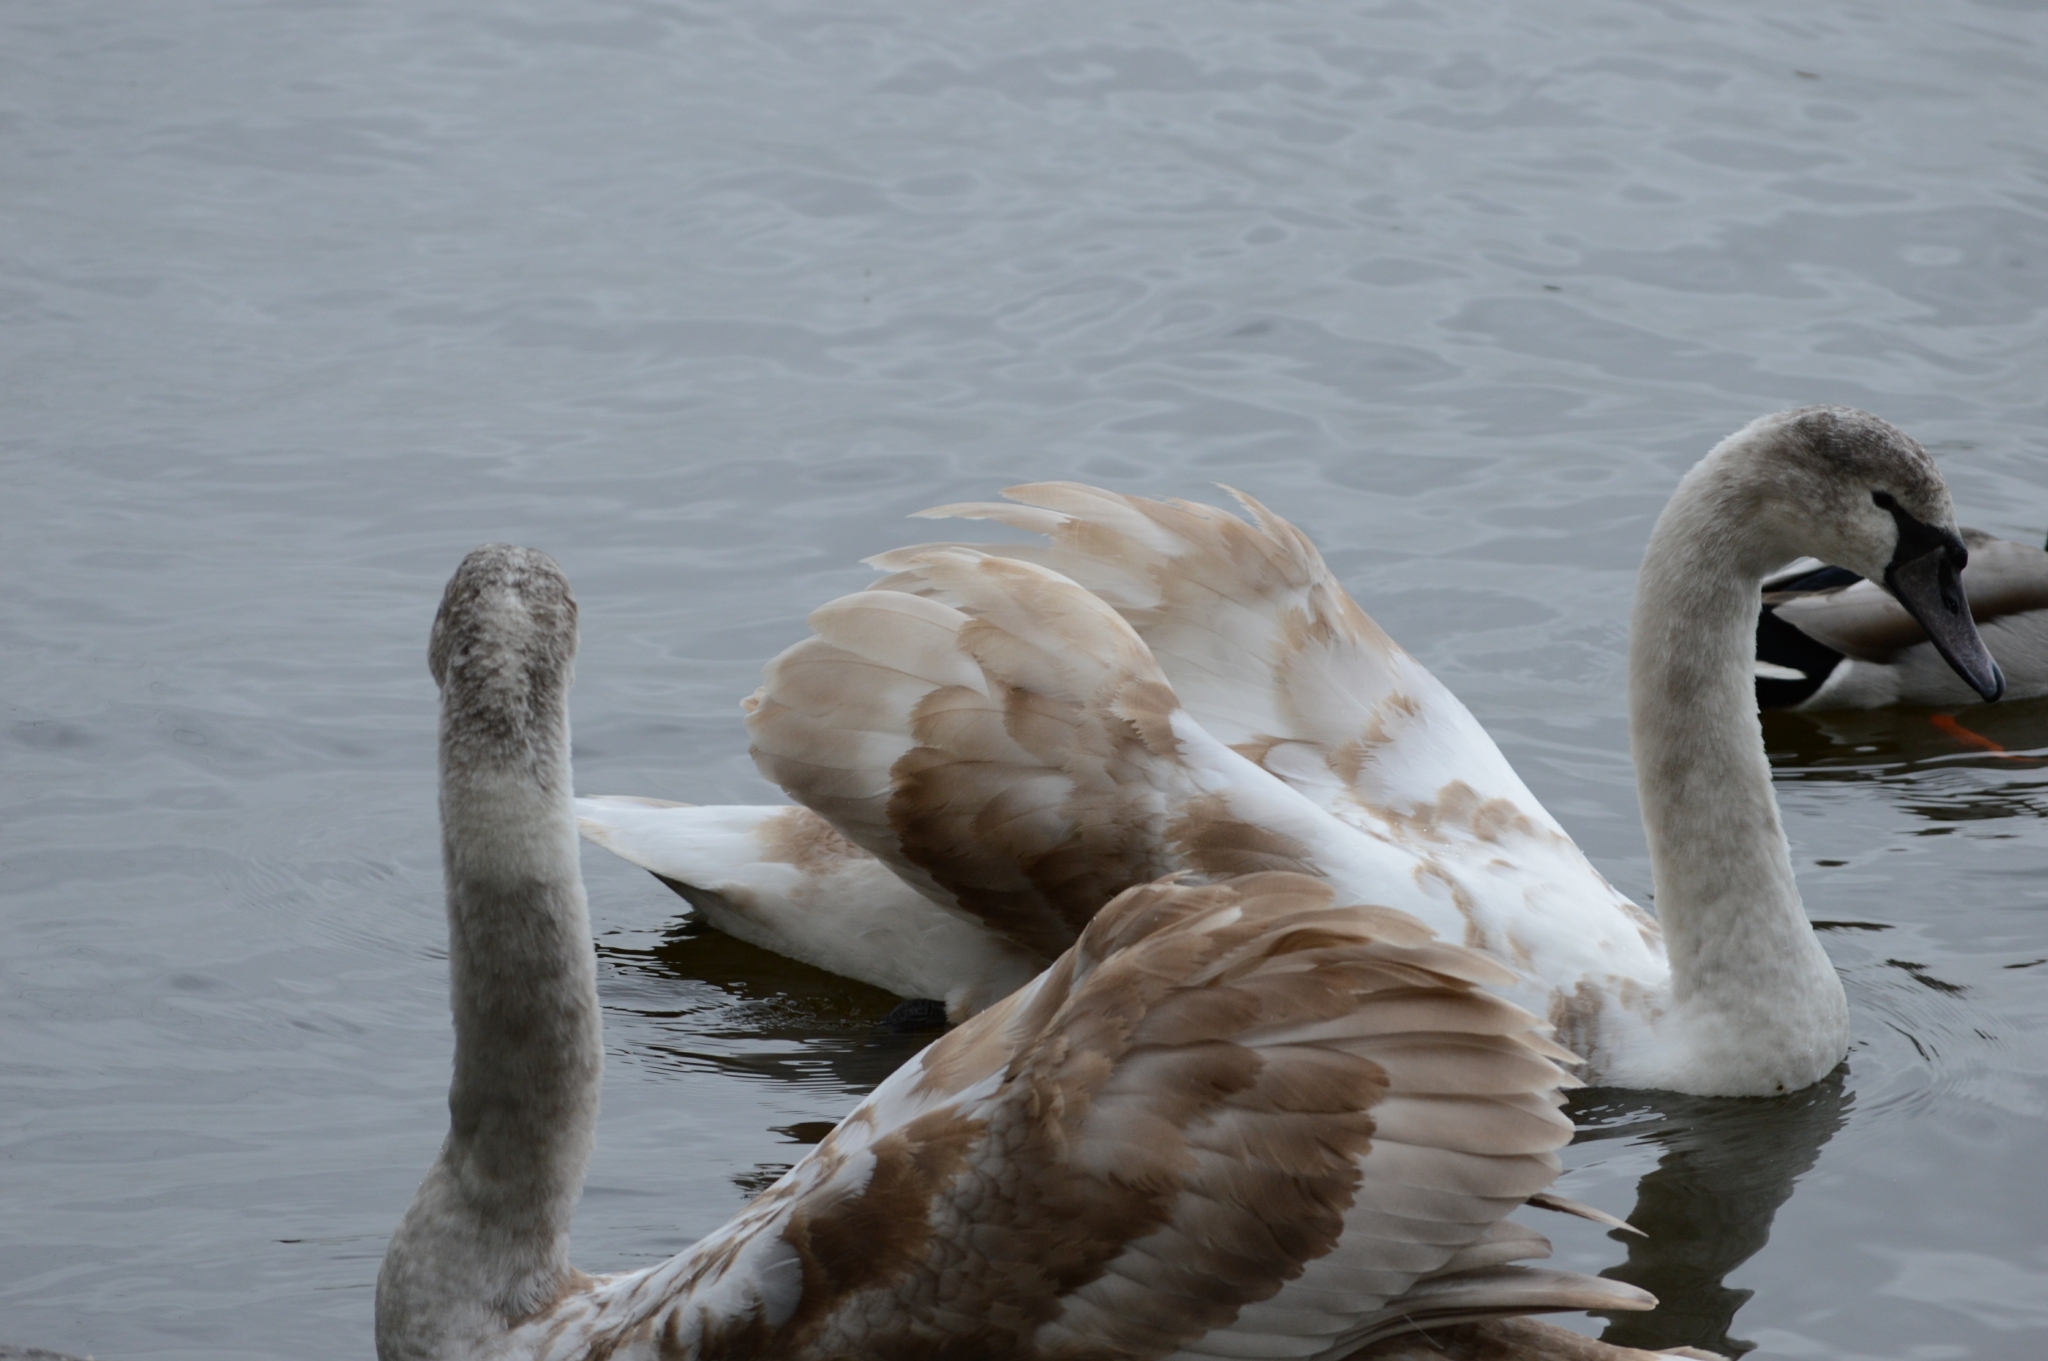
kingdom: Animalia
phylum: Chordata
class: Aves
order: Anseriformes
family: Anatidae
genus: Cygnus
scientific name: Cygnus olor
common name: Mute swan
